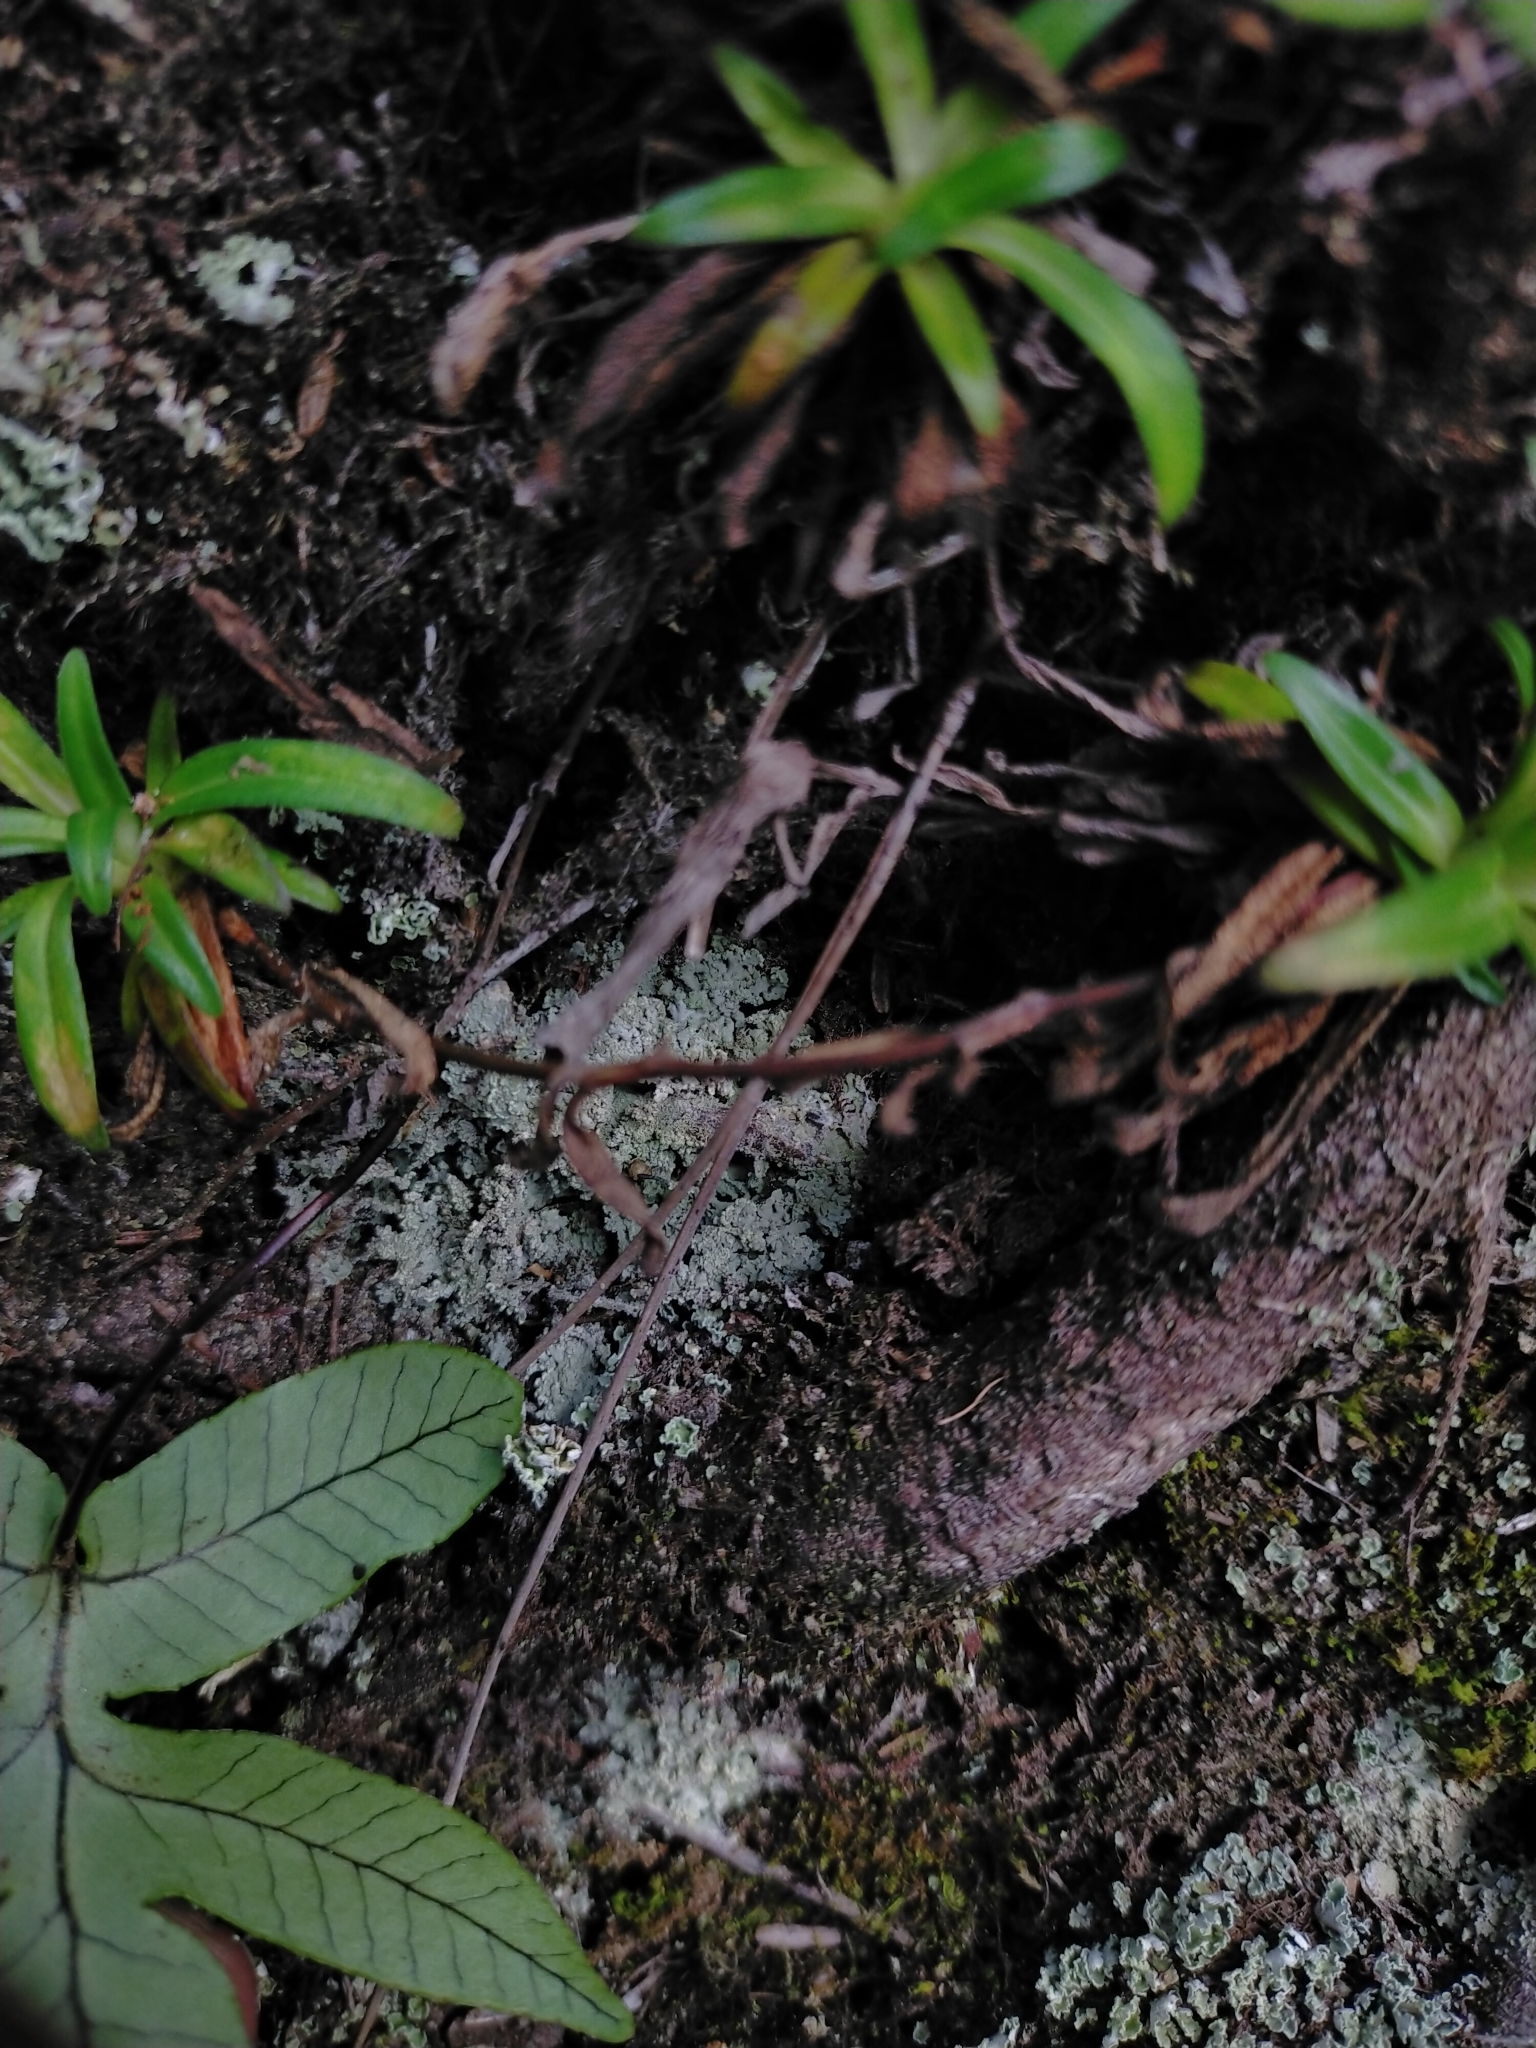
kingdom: Plantae
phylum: Tracheophyta
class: Polypodiopsida
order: Polypodiales
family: Polypodiaceae
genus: Selliguea
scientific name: Selliguea quasidivaricata
